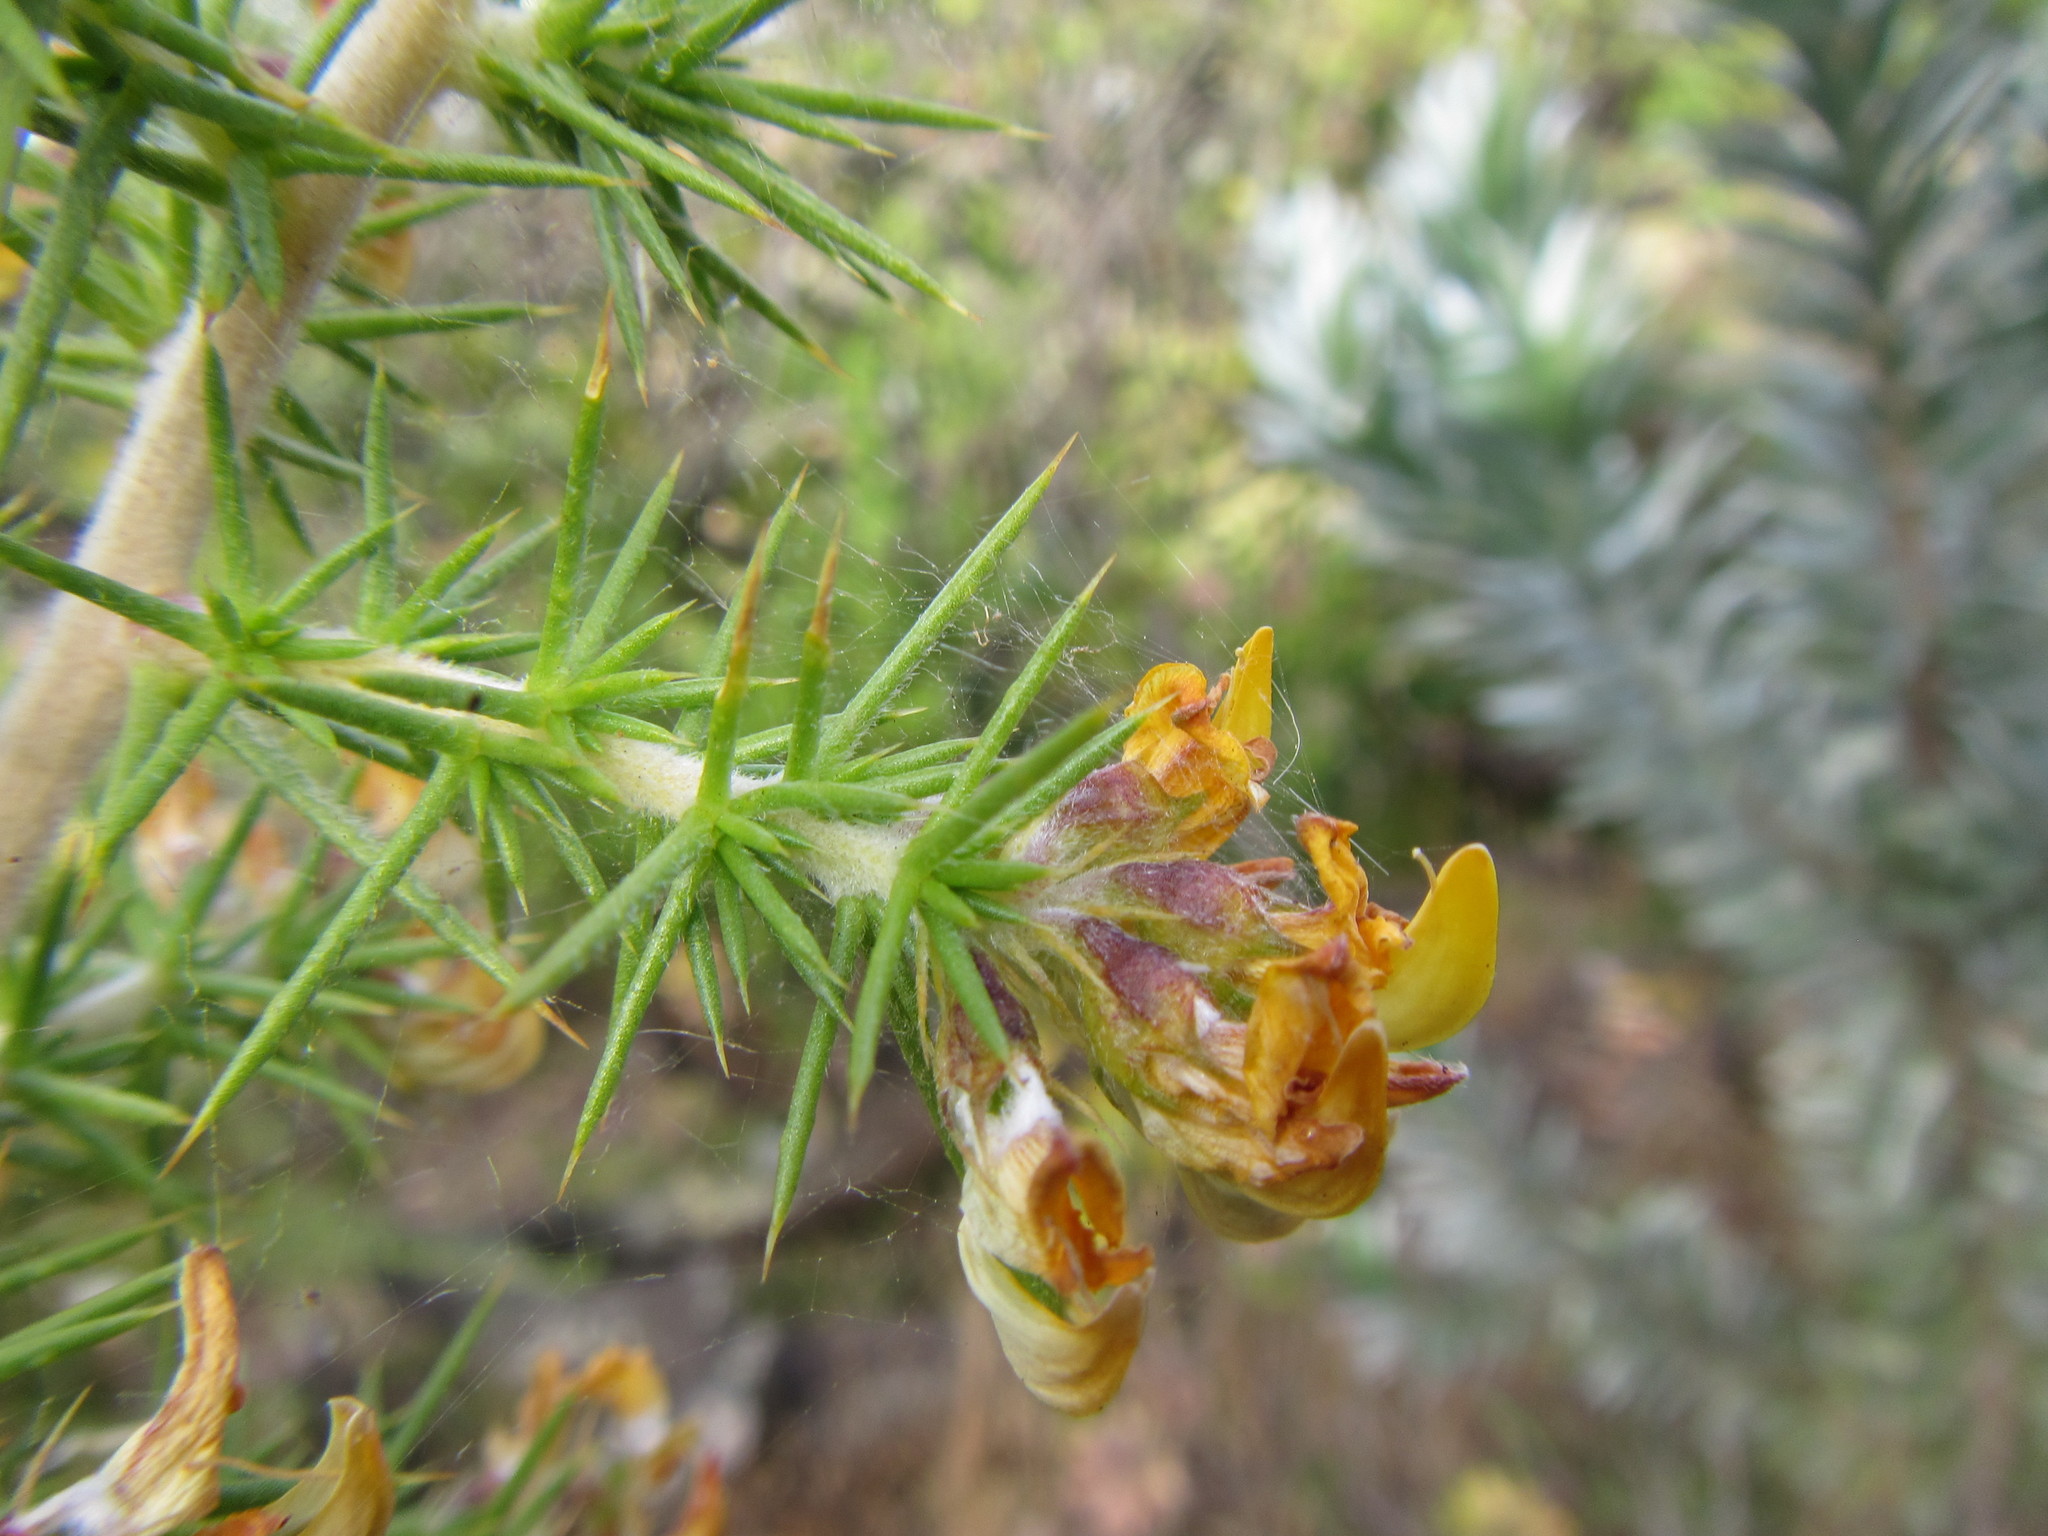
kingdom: Plantae
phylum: Tracheophyta
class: Magnoliopsida
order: Fabales
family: Fabaceae
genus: Aspalathus
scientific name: Aspalathus astroites
